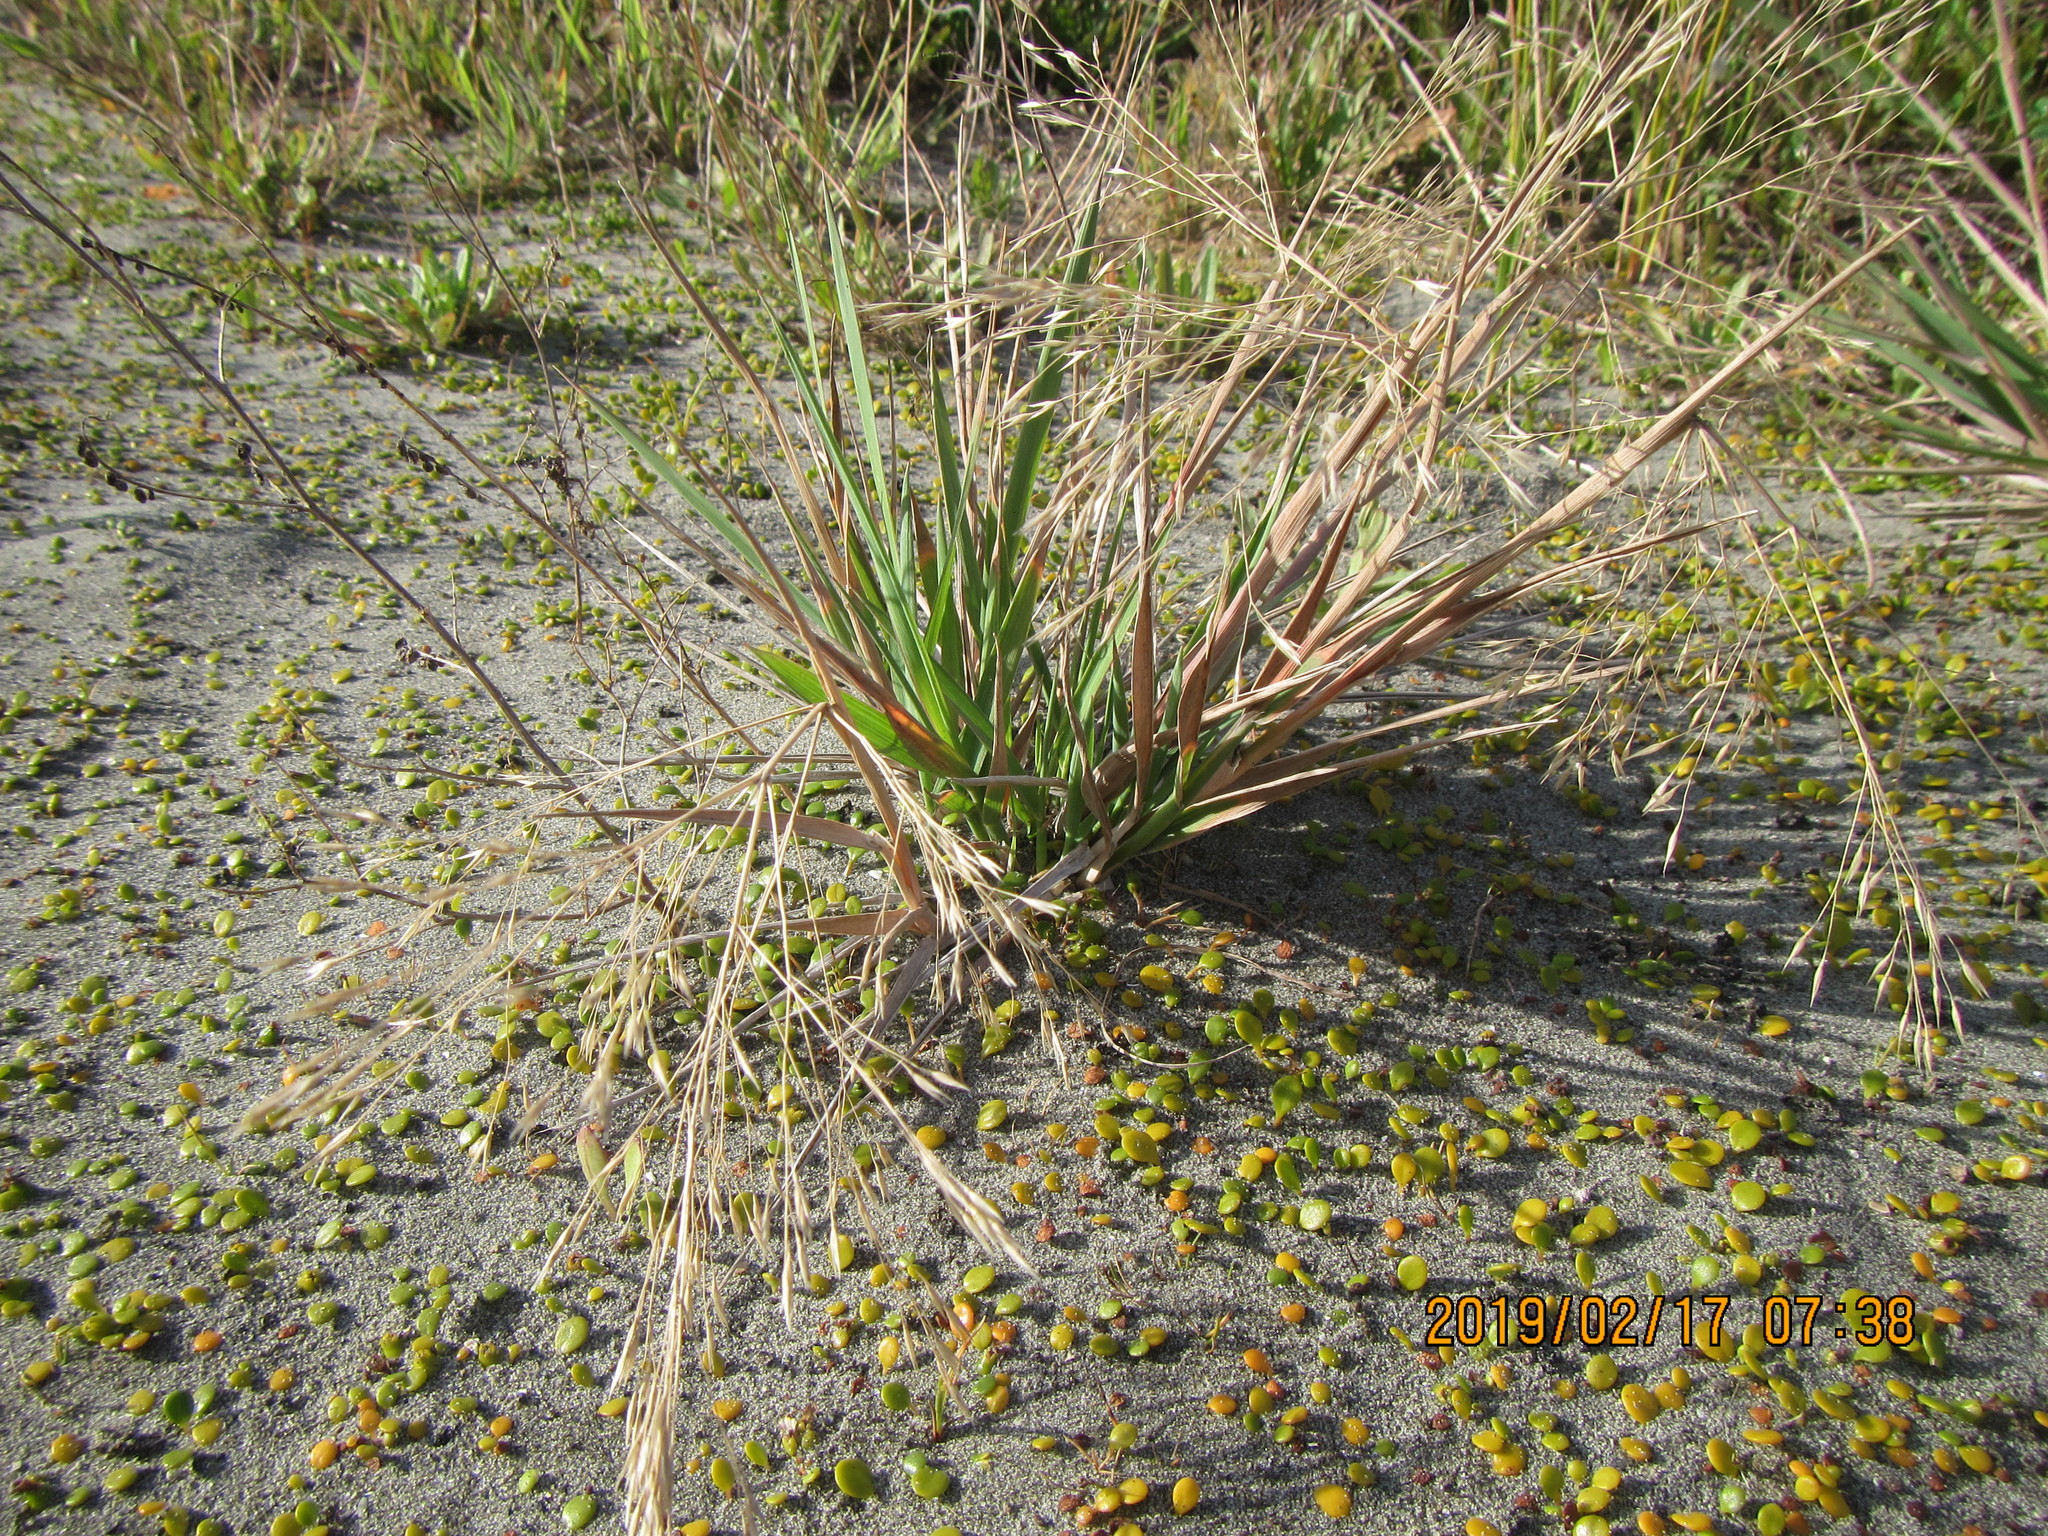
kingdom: Plantae
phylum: Tracheophyta
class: Liliopsida
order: Poales
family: Poaceae
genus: Lachnagrostis
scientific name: Lachnagrostis billardierei
